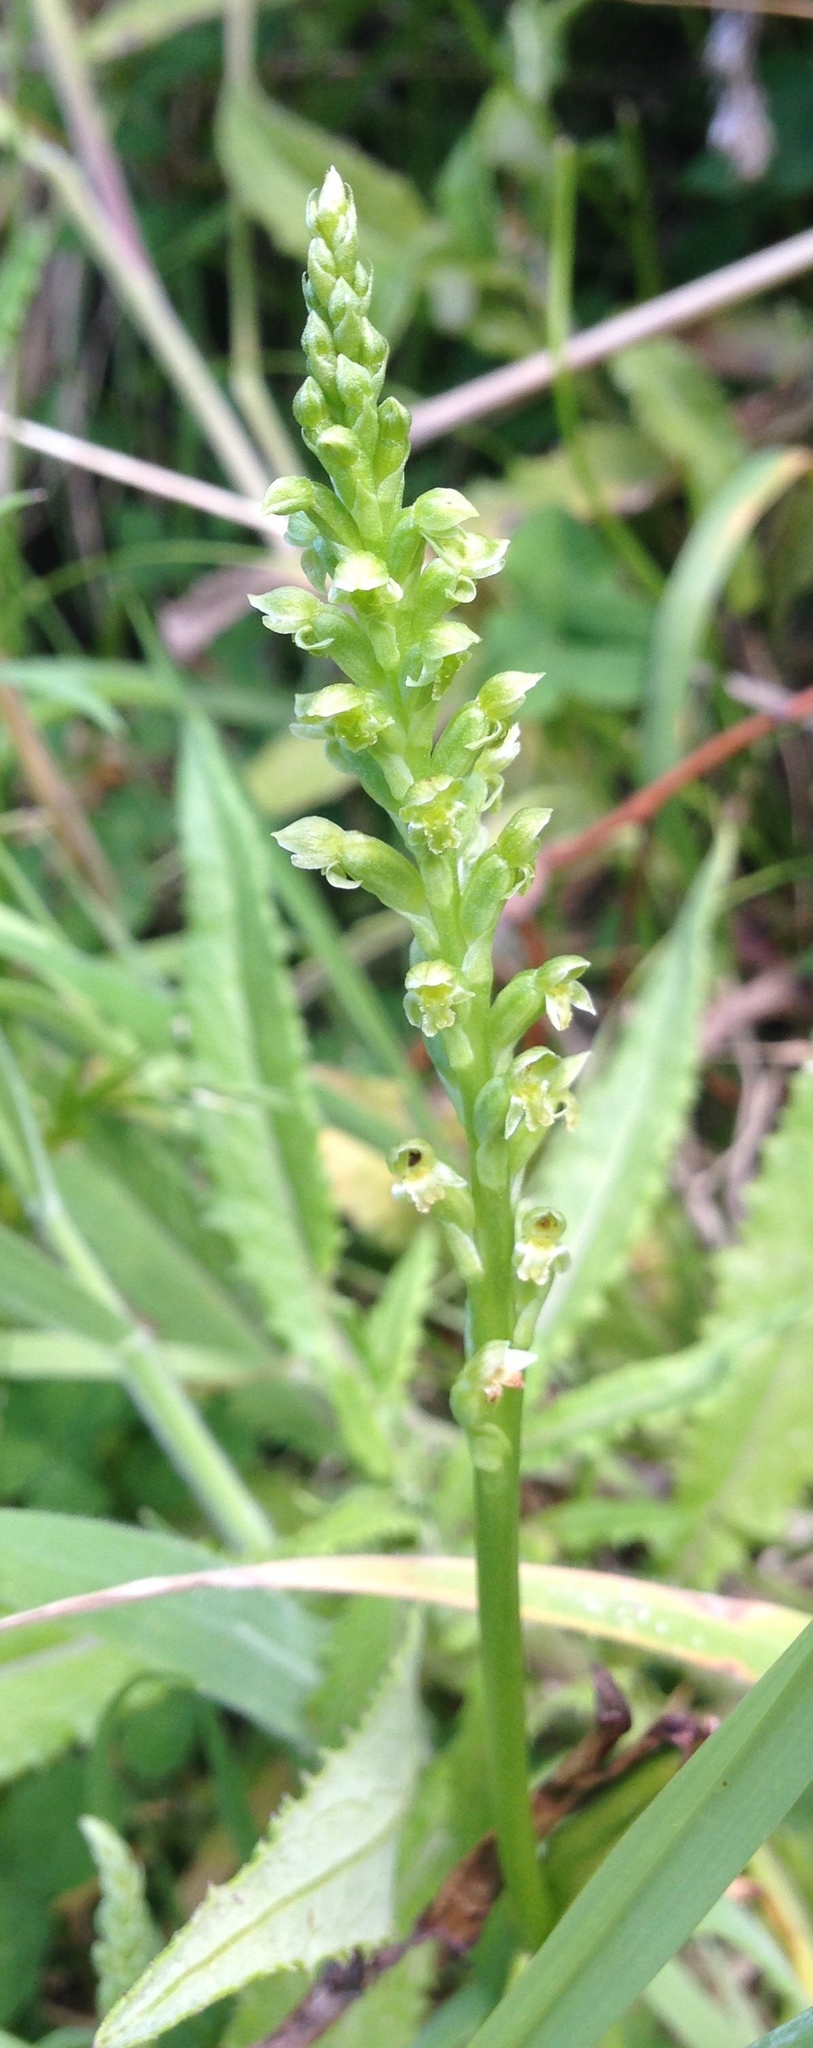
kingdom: Plantae
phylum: Tracheophyta
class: Liliopsida
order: Asparagales
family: Orchidaceae
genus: Microtis
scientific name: Microtis unifolia
